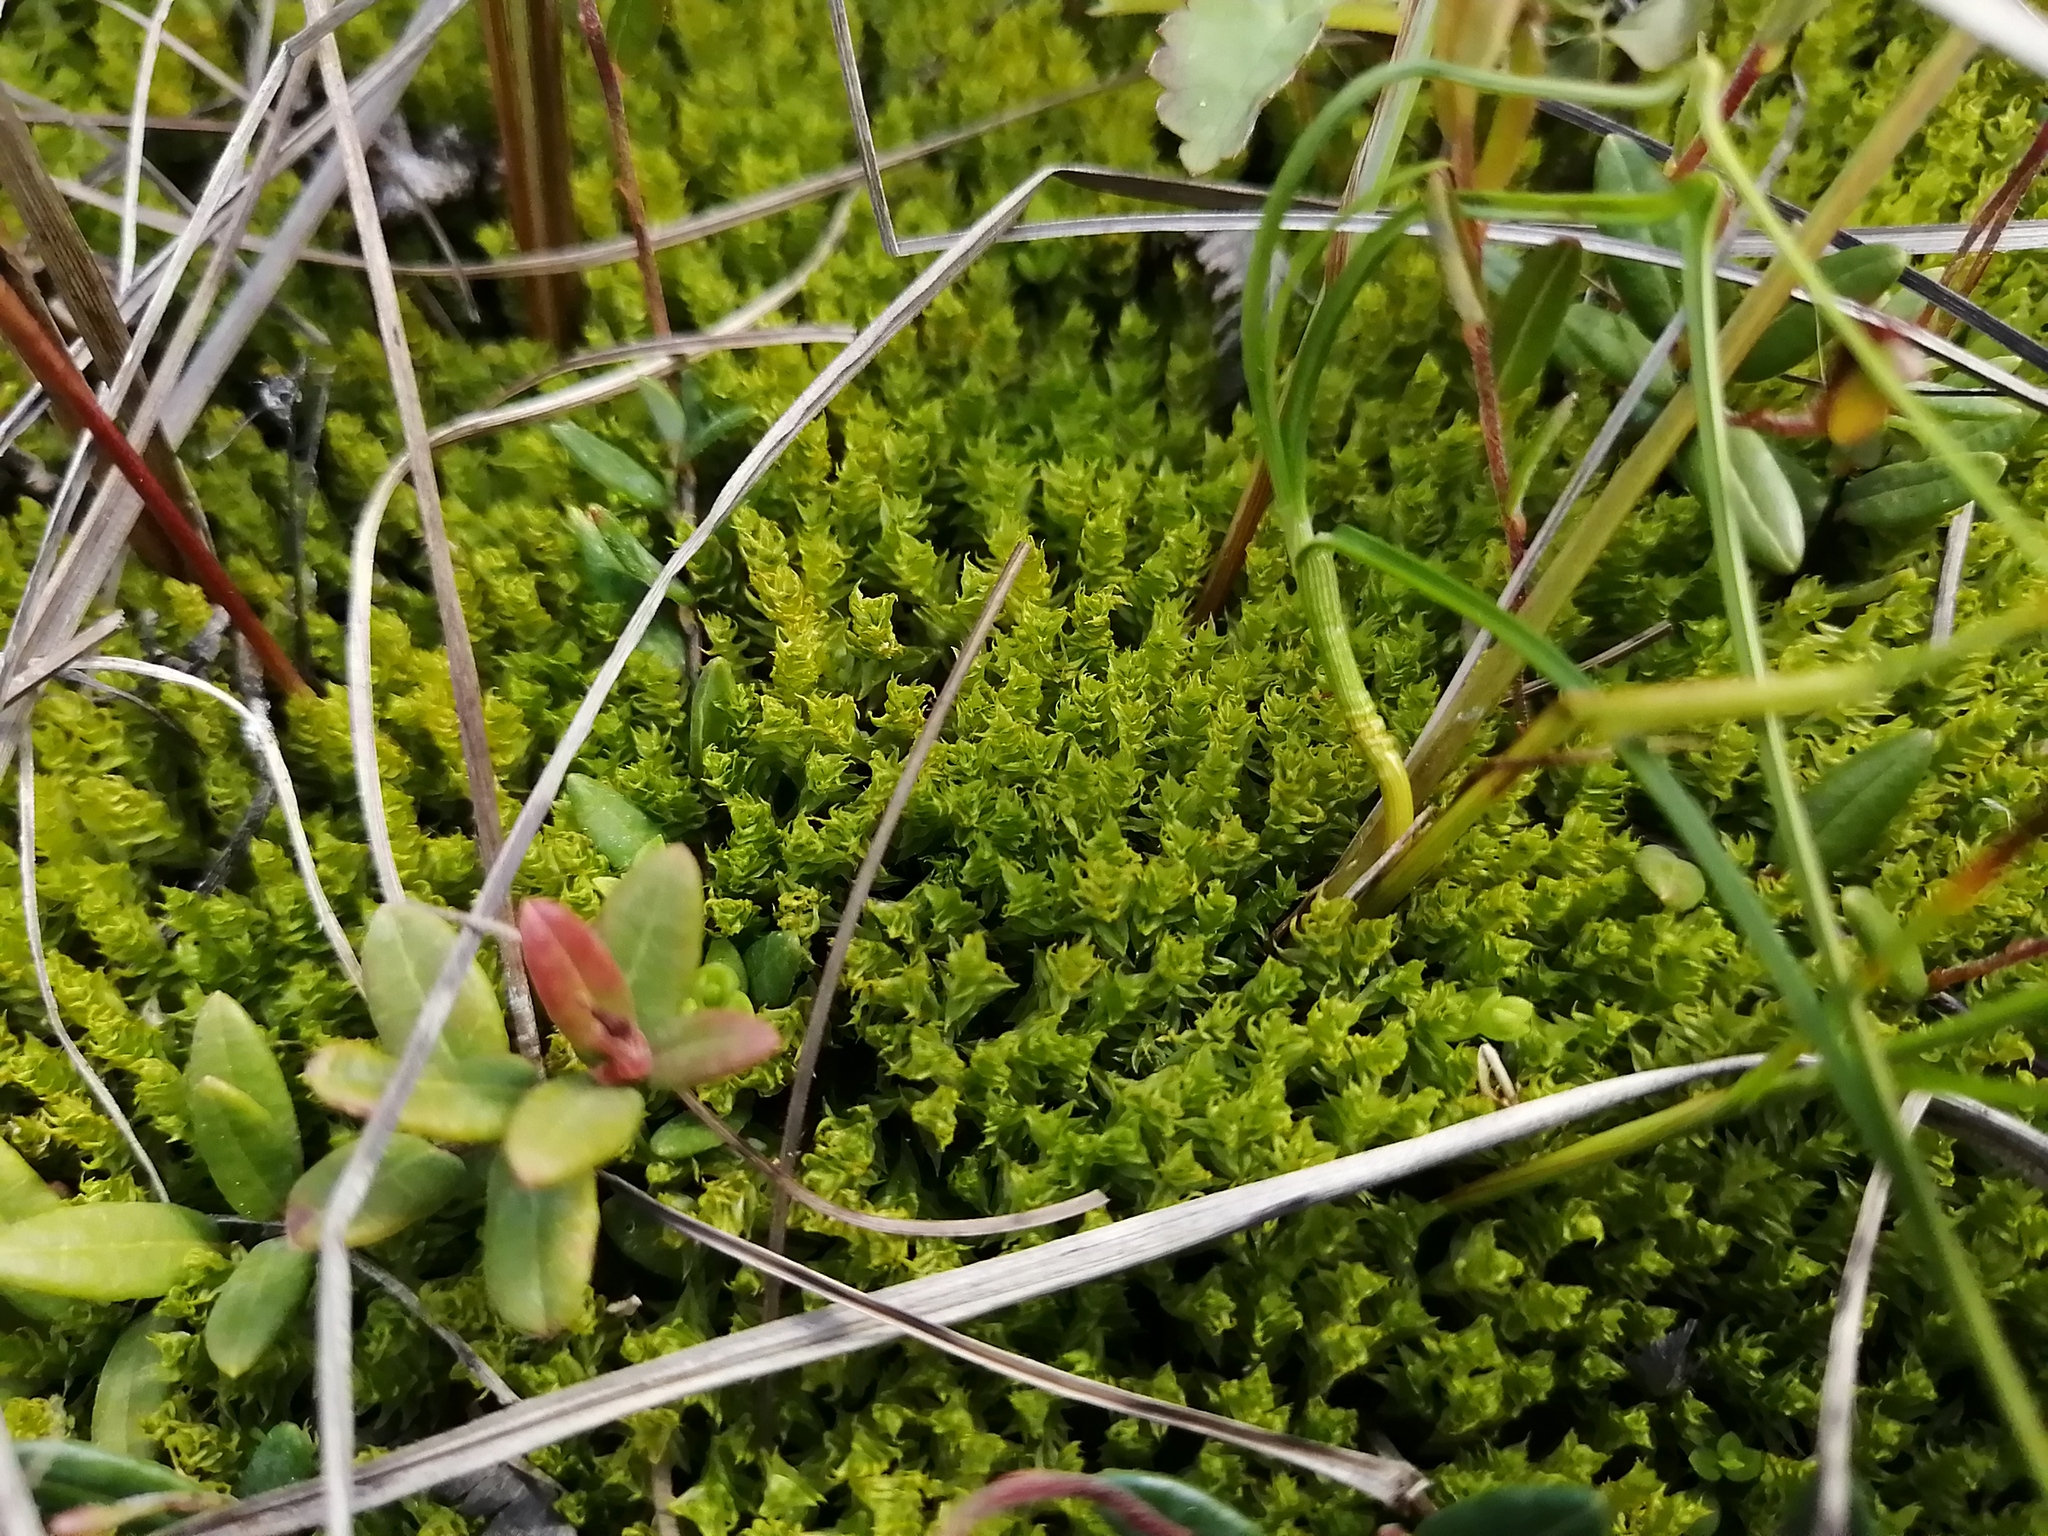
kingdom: Plantae
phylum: Bryophyta
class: Bryopsida
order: Splachnales
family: Meesiaceae
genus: Meesia
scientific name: Meesia triquetra
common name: Three-angled thread moss
